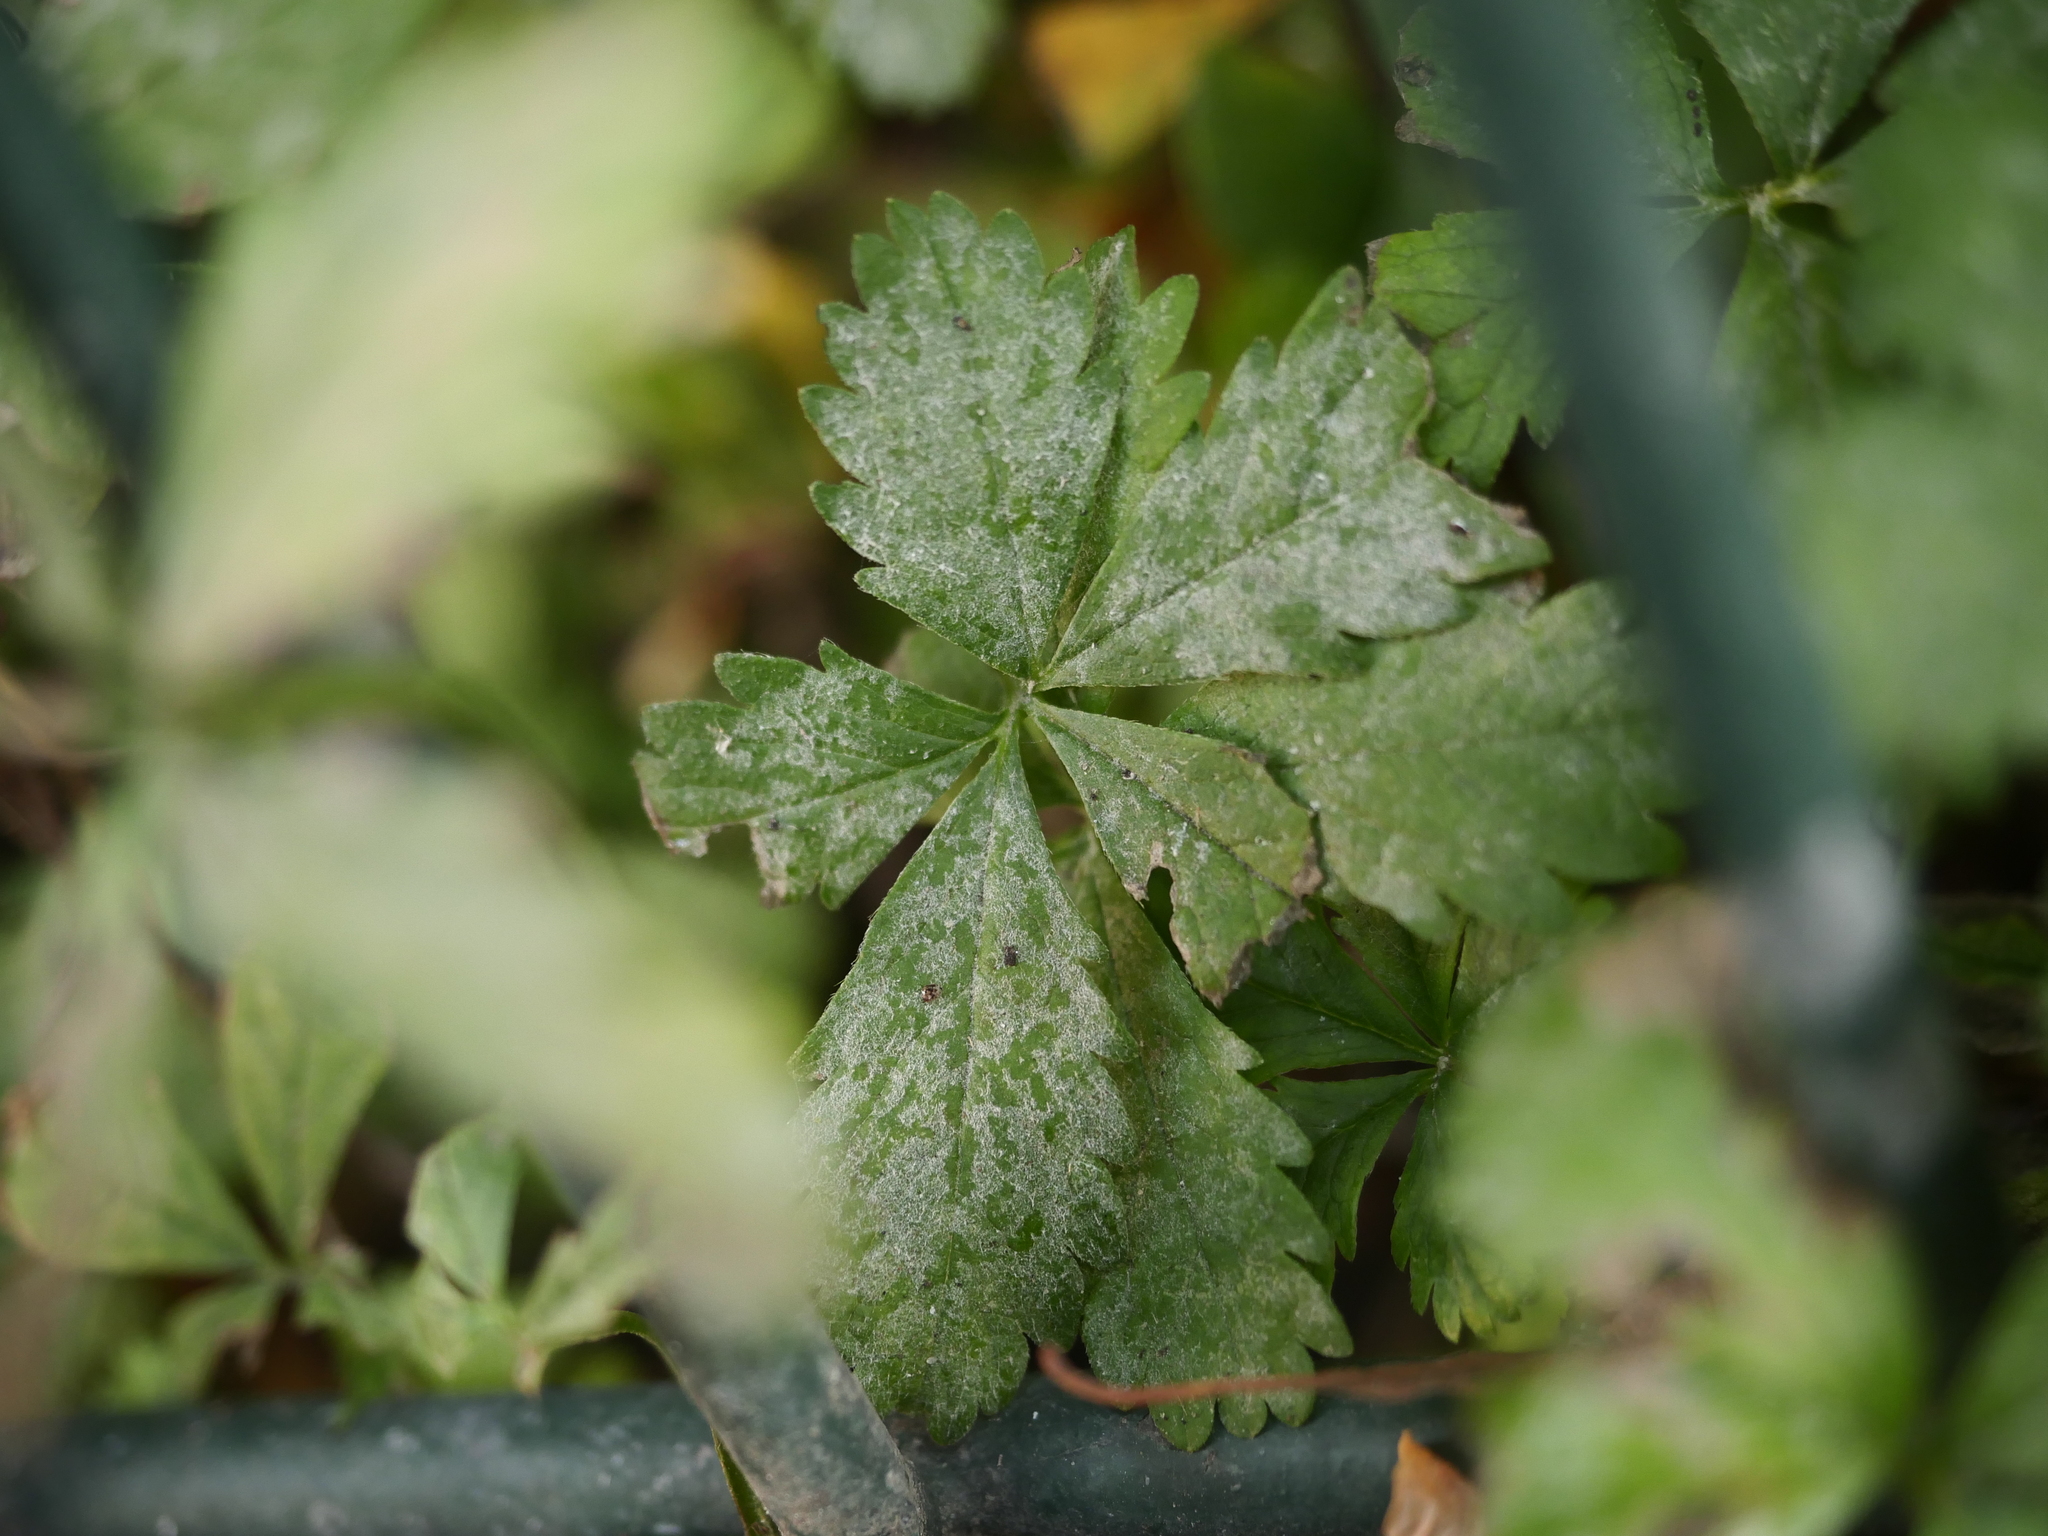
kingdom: Fungi
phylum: Ascomycota
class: Leotiomycetes
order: Helotiales
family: Erysiphaceae
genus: Podosphaera
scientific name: Podosphaera aphanis
